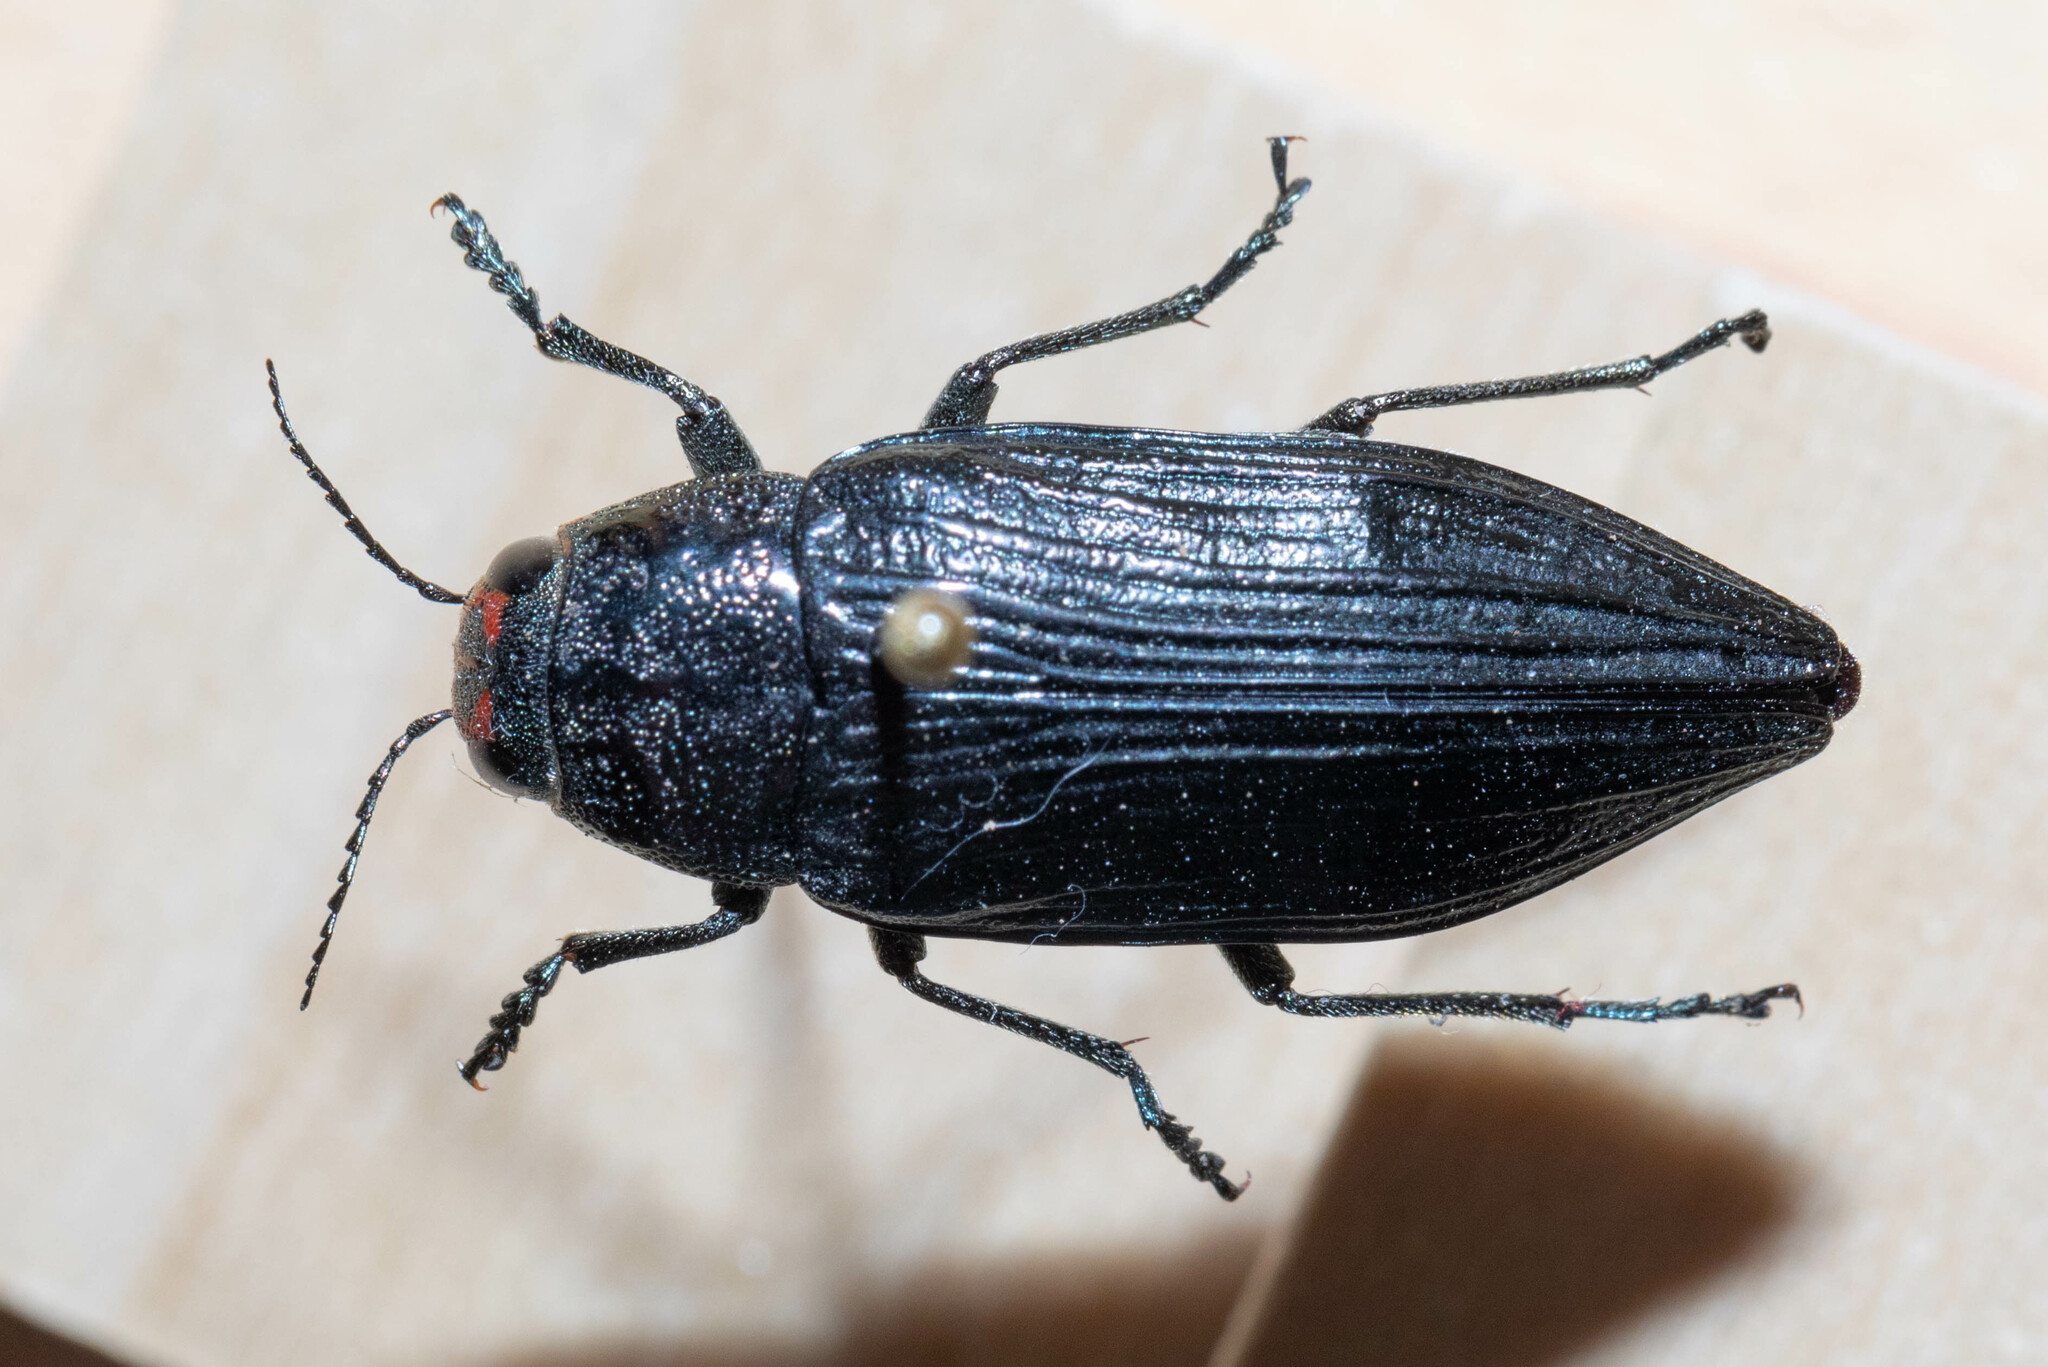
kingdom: Animalia
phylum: Arthropoda
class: Insecta
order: Coleoptera
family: Buprestidae
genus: Buprestis
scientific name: Buprestis lyrata
